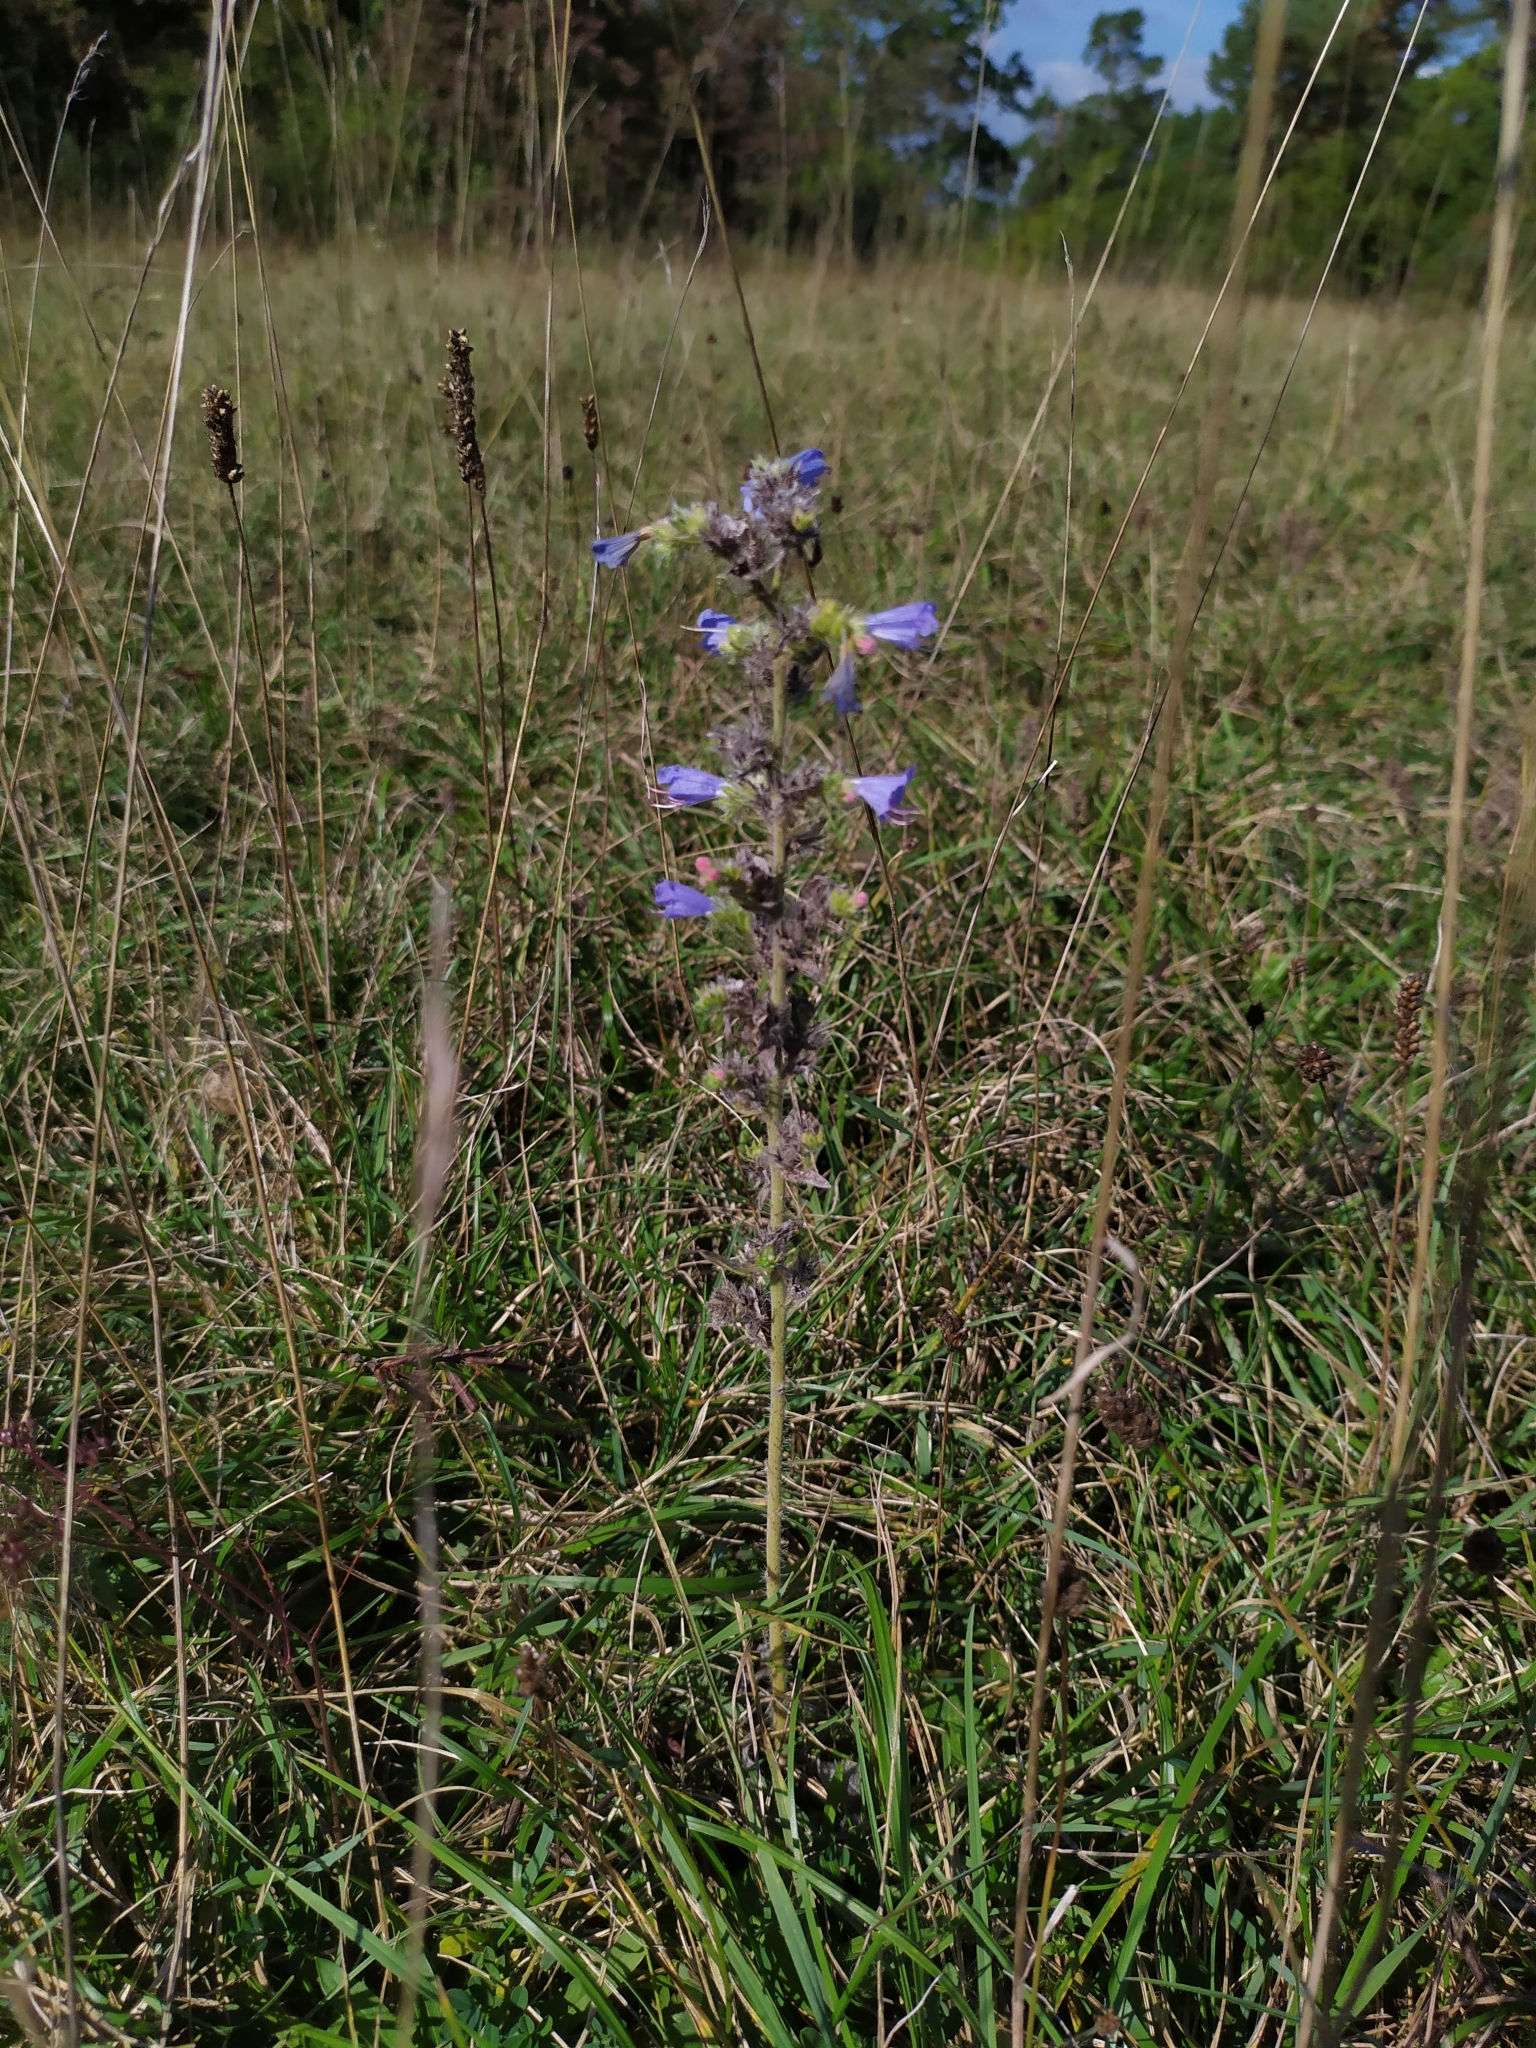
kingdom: Plantae
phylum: Tracheophyta
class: Magnoliopsida
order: Boraginales
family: Boraginaceae
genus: Echium
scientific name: Echium vulgare
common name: Common viper's bugloss
